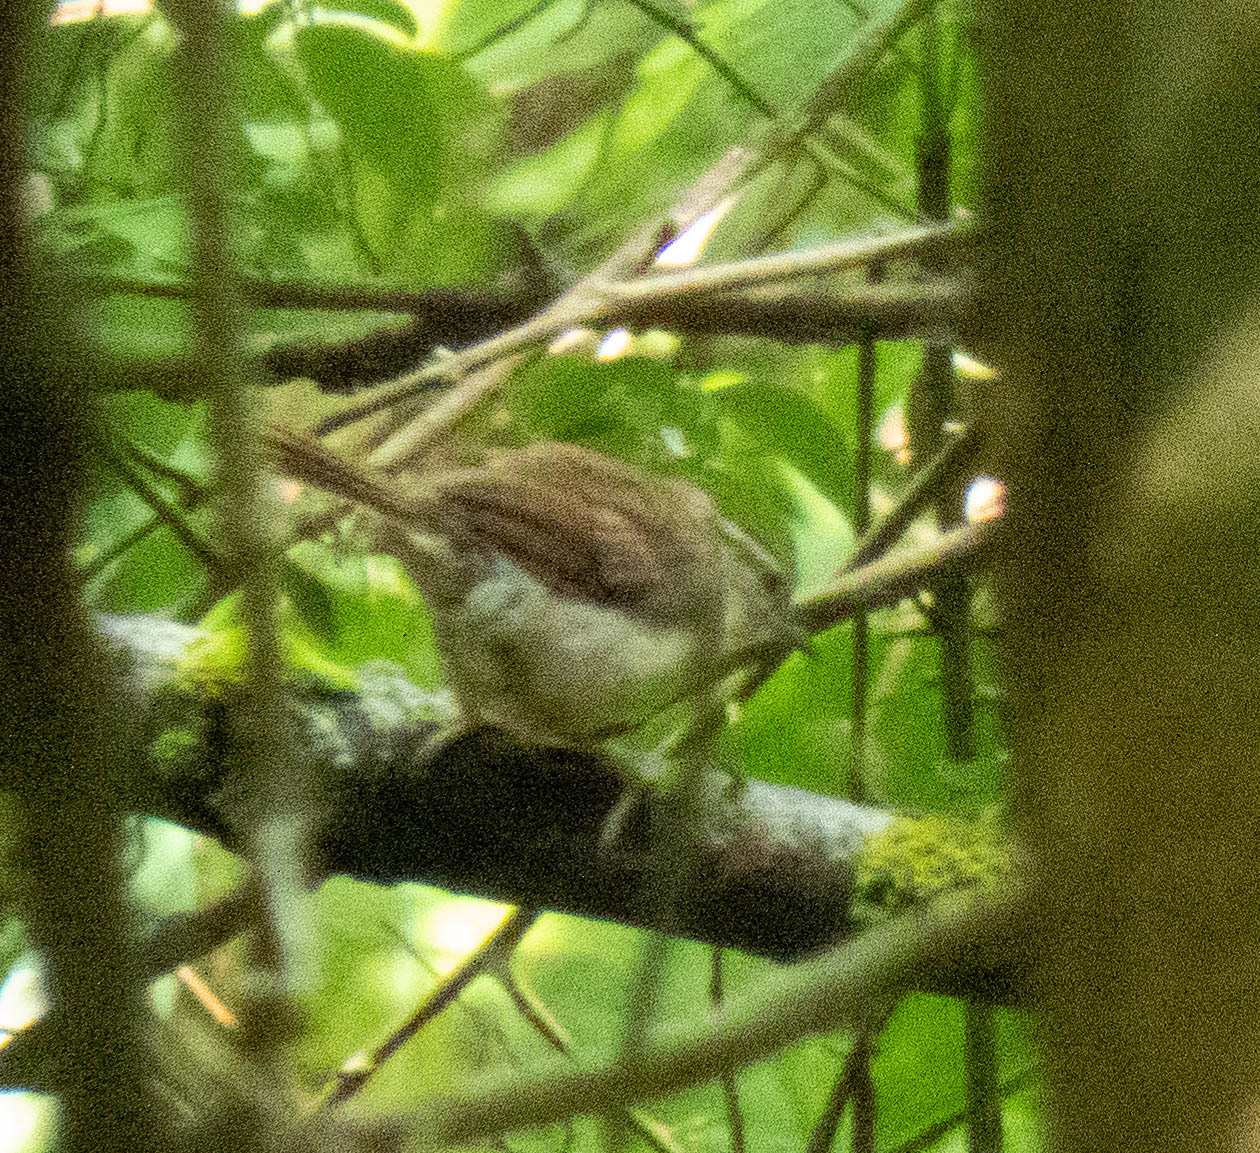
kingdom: Animalia
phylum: Chordata
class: Aves
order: Passeriformes
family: Troglodytidae
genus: Thryothorus
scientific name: Thryothorus ludovicianus
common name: Carolina wren
